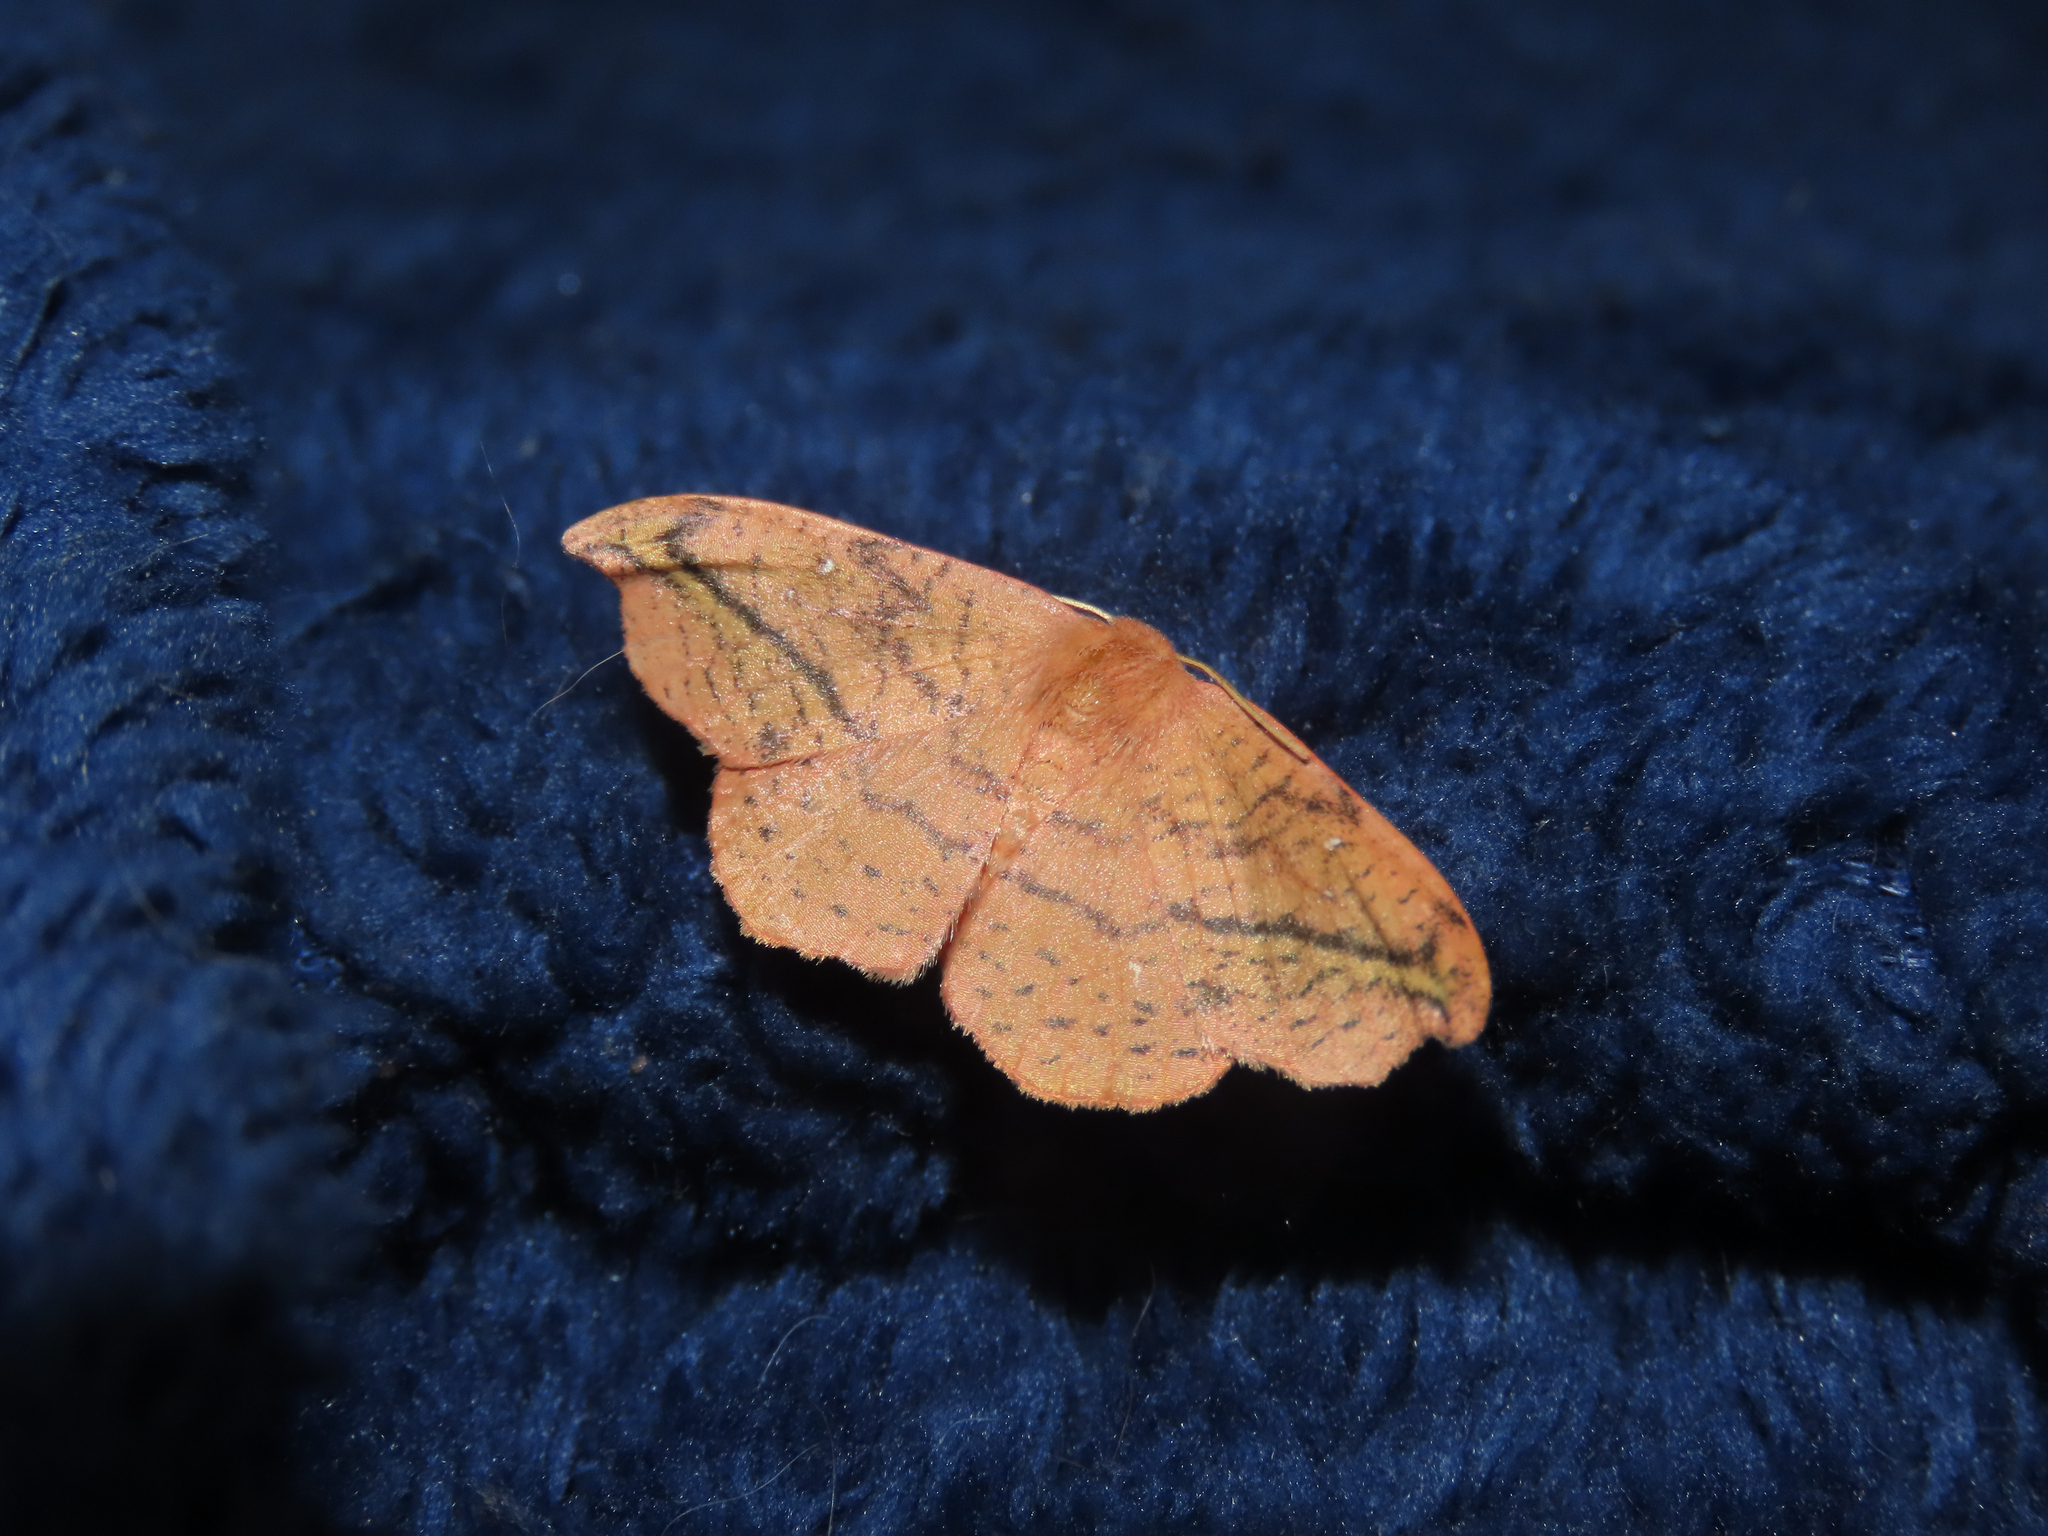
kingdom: Animalia
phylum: Arthropoda
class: Insecta
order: Lepidoptera
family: Drepanidae
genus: Oreta
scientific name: Oreta rosea
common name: Rose hooktip
